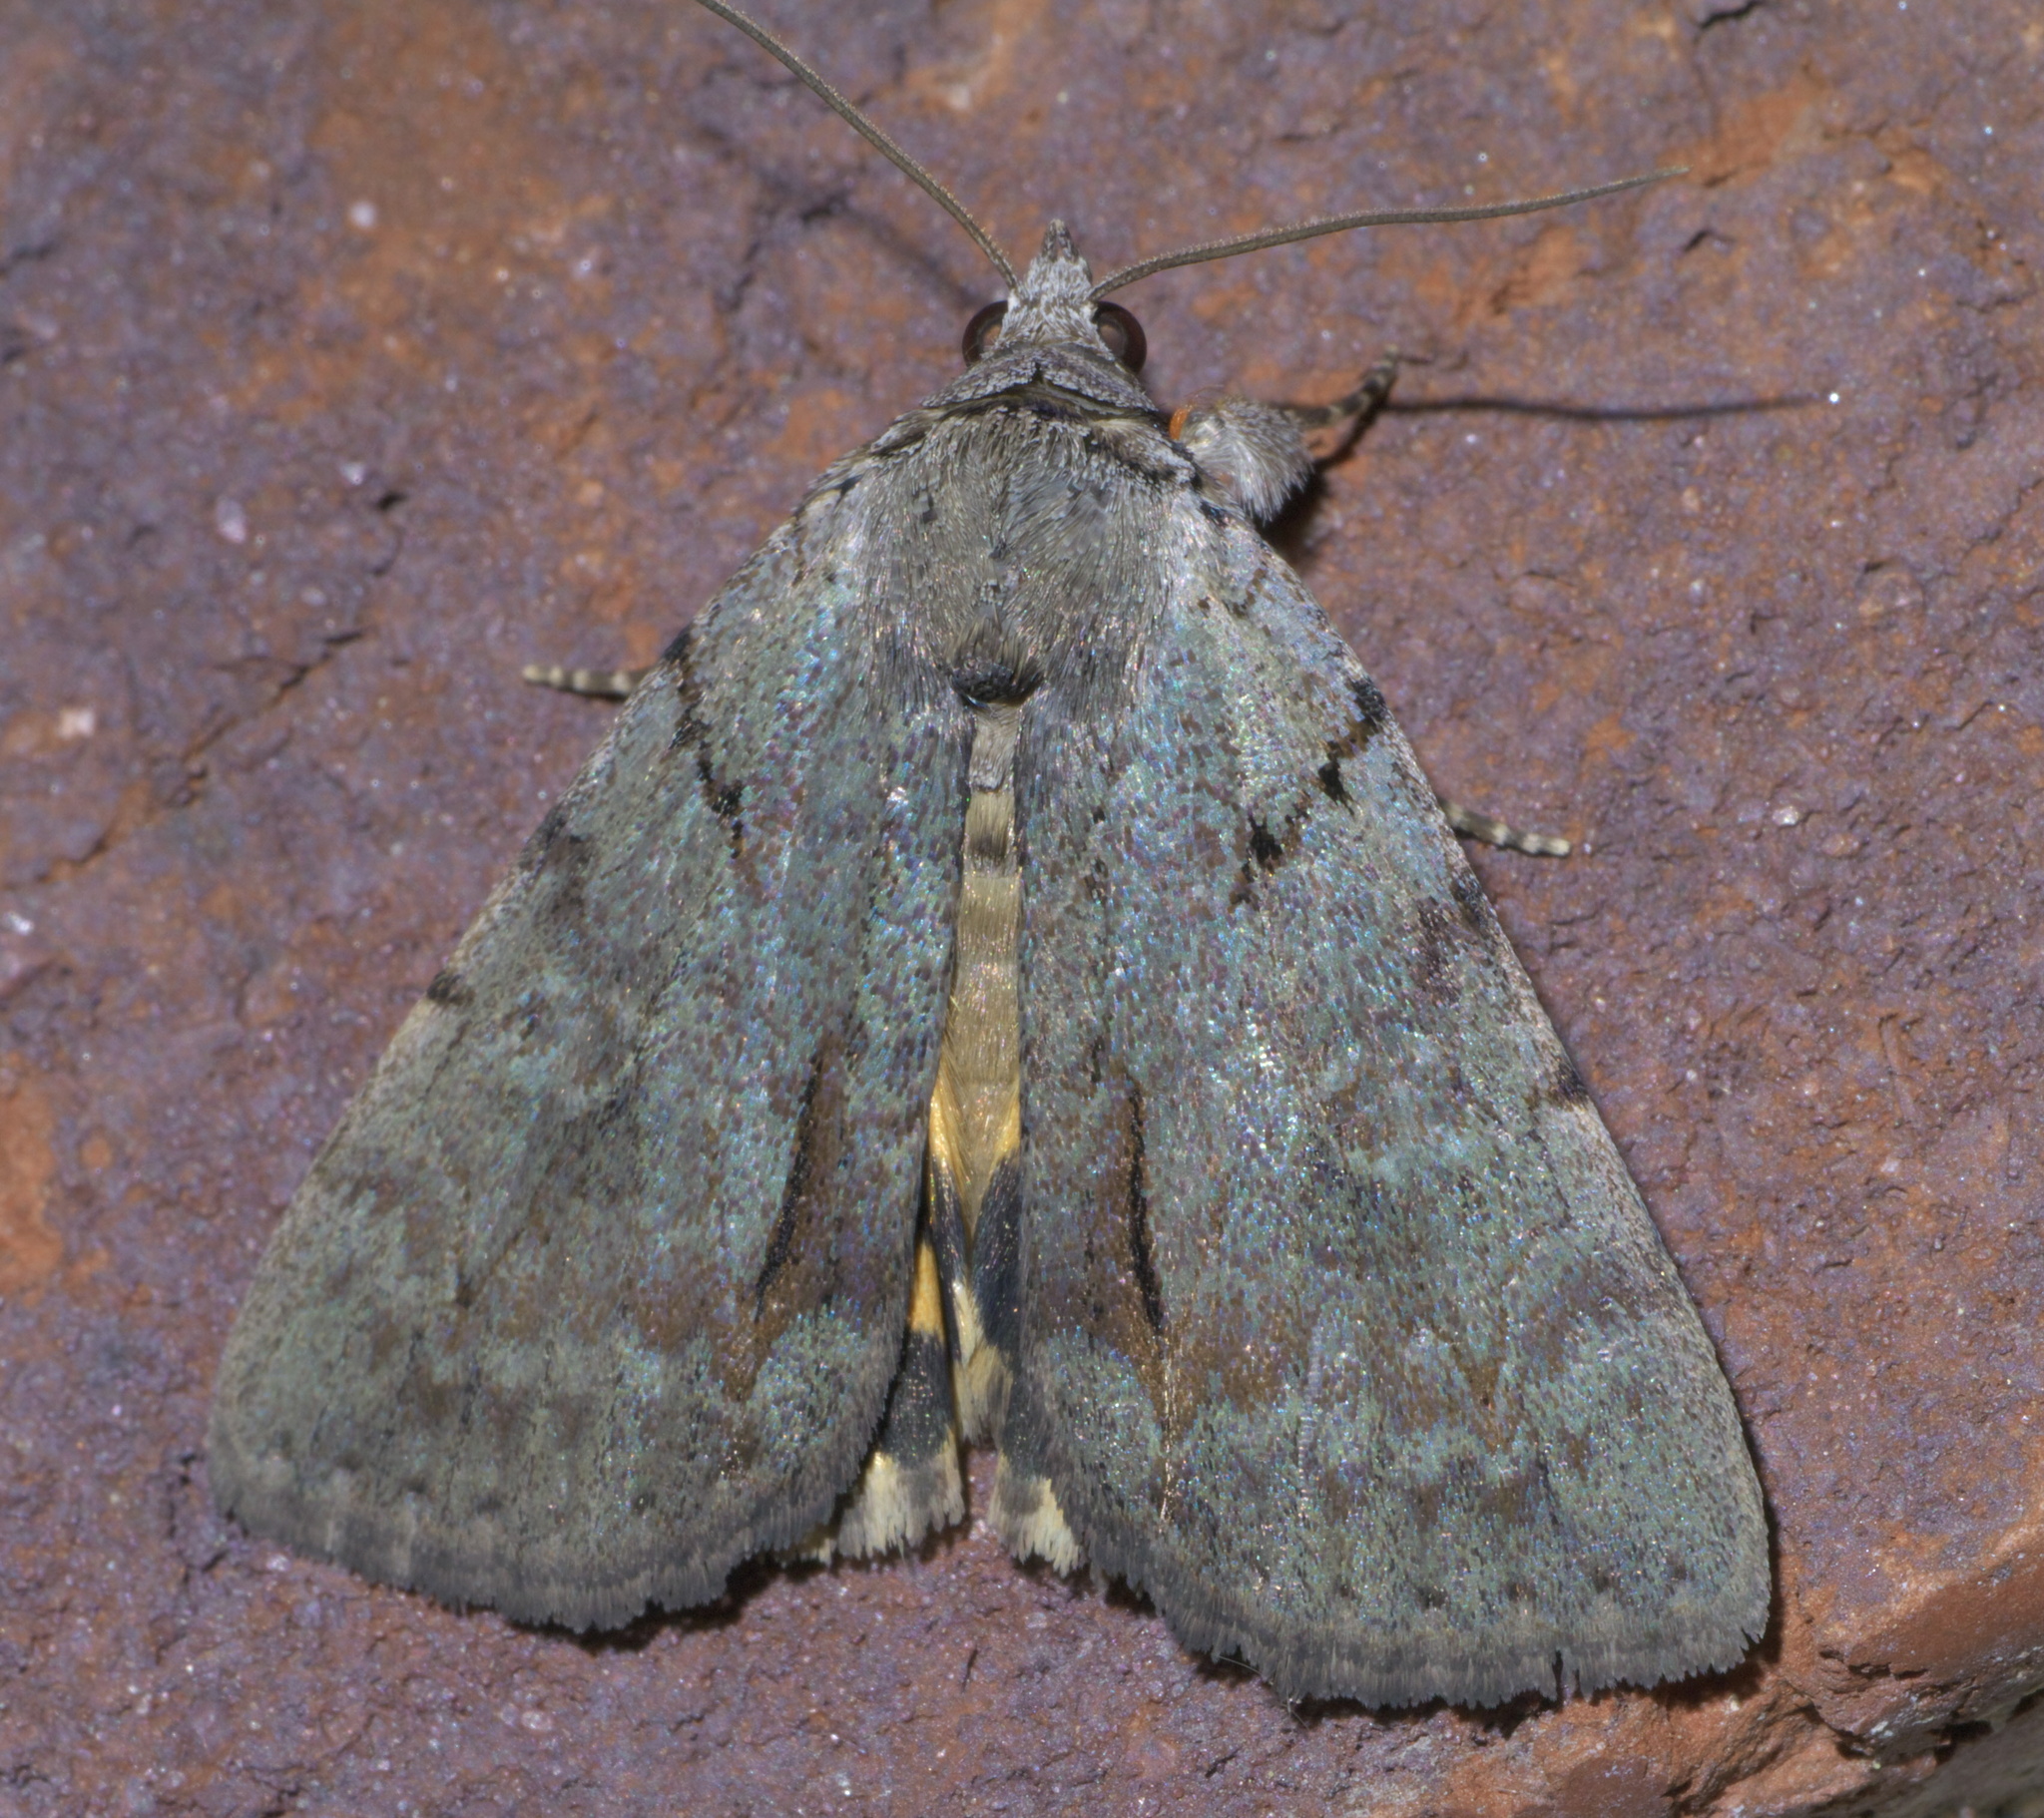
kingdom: Animalia
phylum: Arthropoda
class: Insecta
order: Lepidoptera
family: Erebidae
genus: Catocala
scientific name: Catocala alabamae
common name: Alabama underwing
